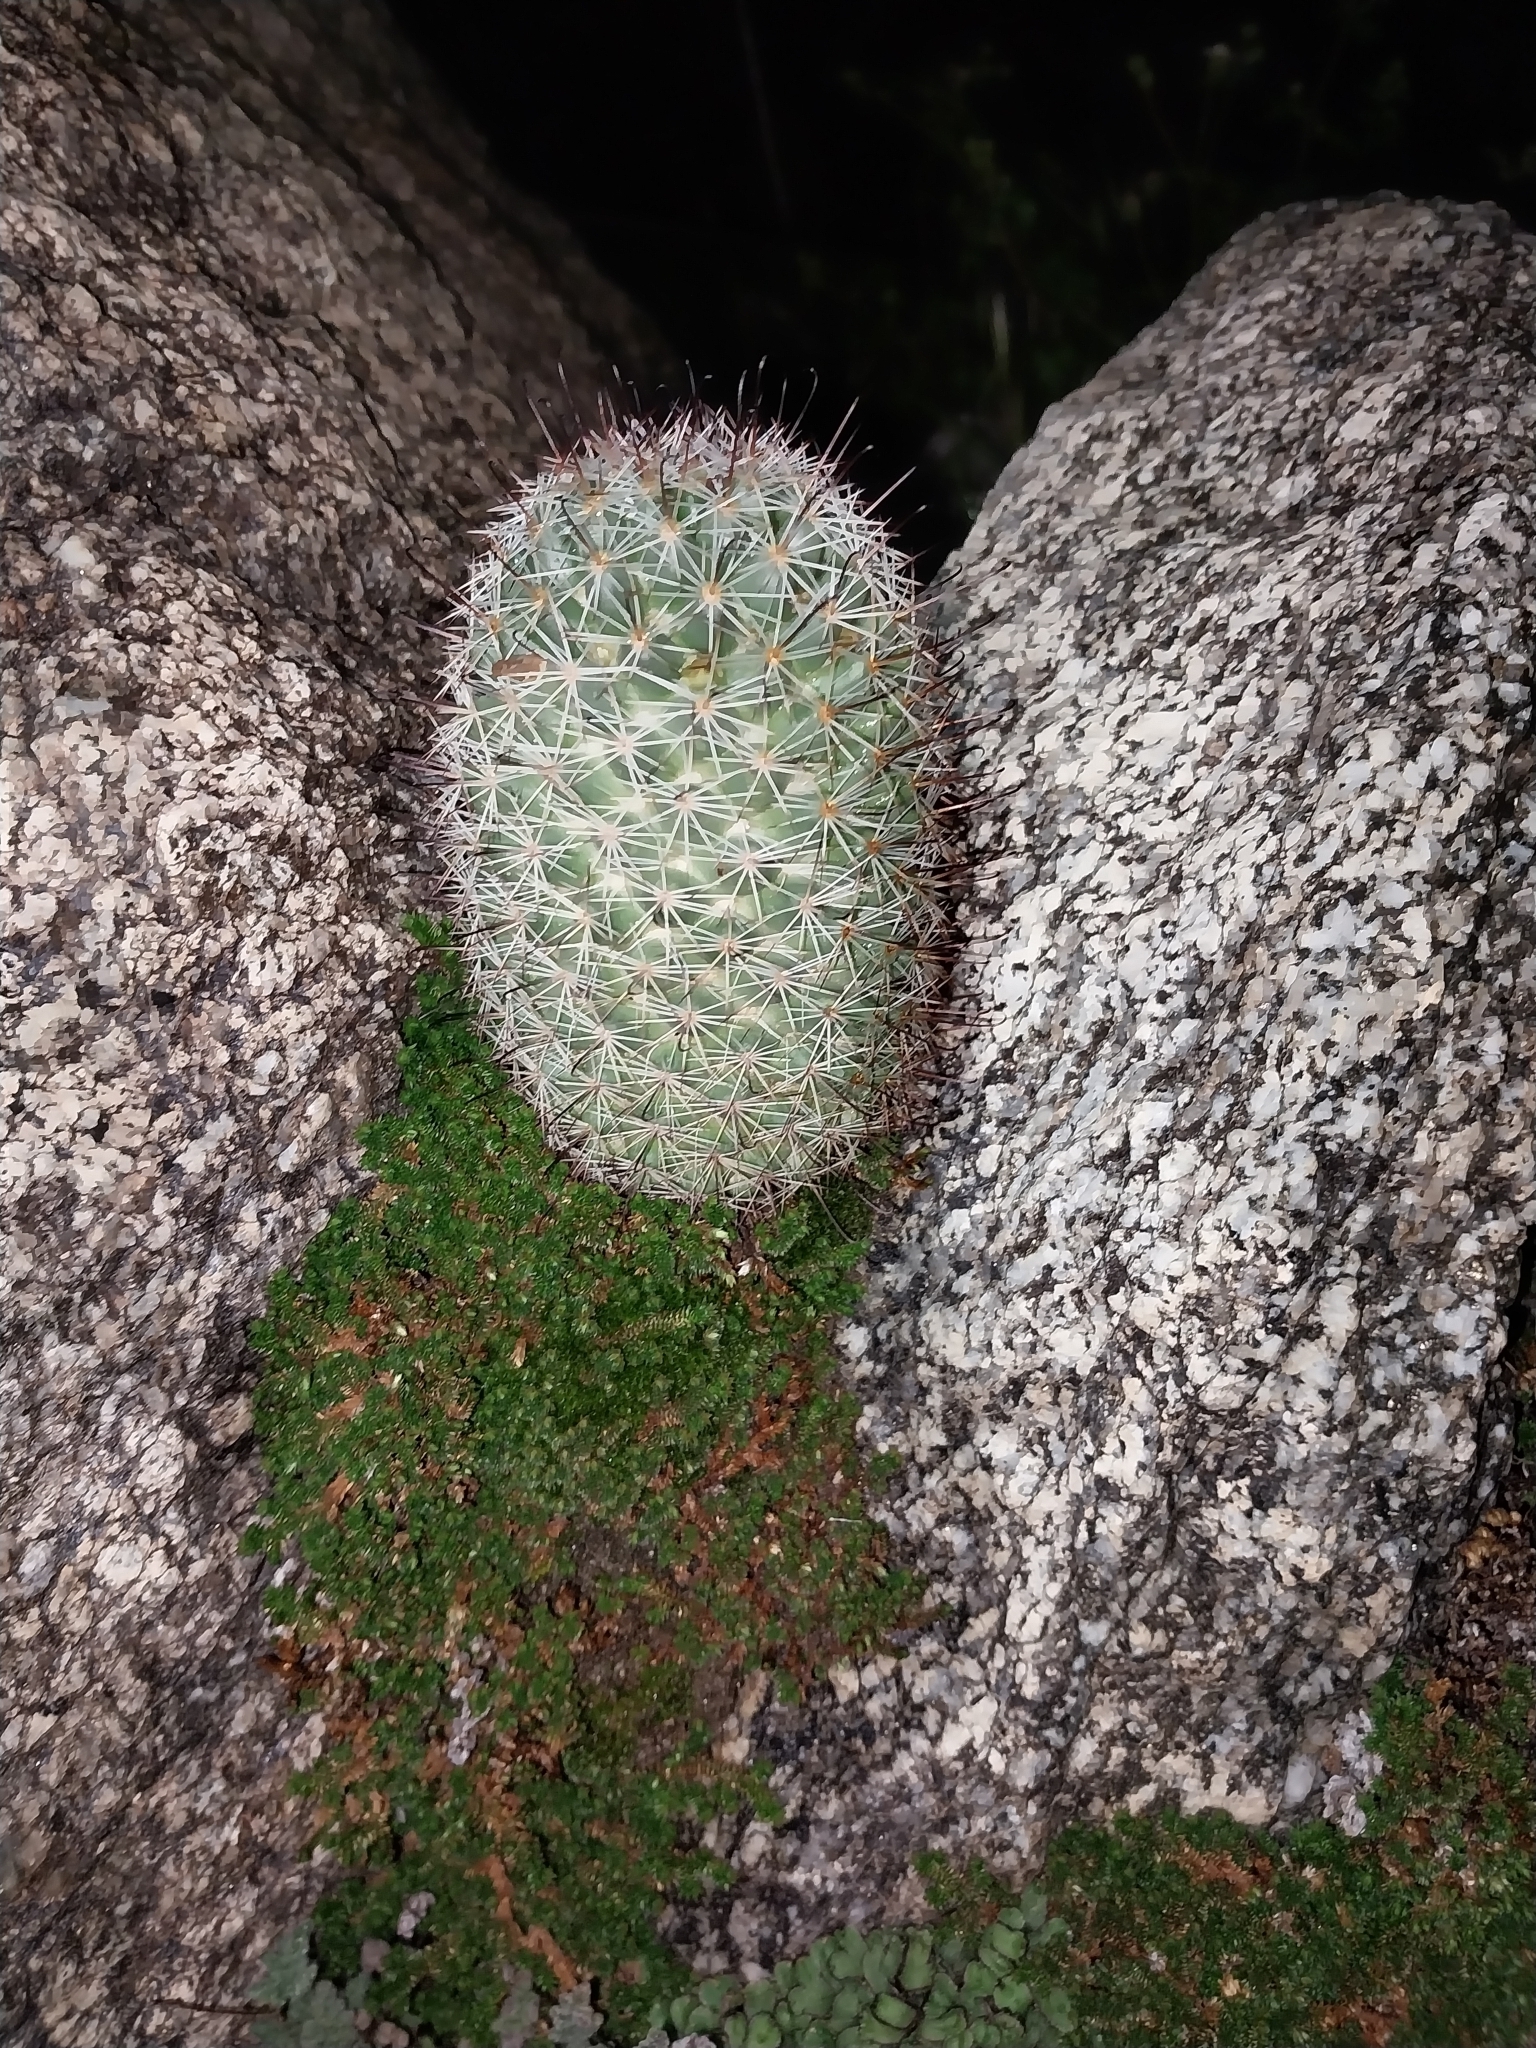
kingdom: Plantae
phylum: Tracheophyta
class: Magnoliopsida
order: Caryophyllales
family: Cactaceae
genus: Cochemiea
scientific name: Cochemiea dioica
